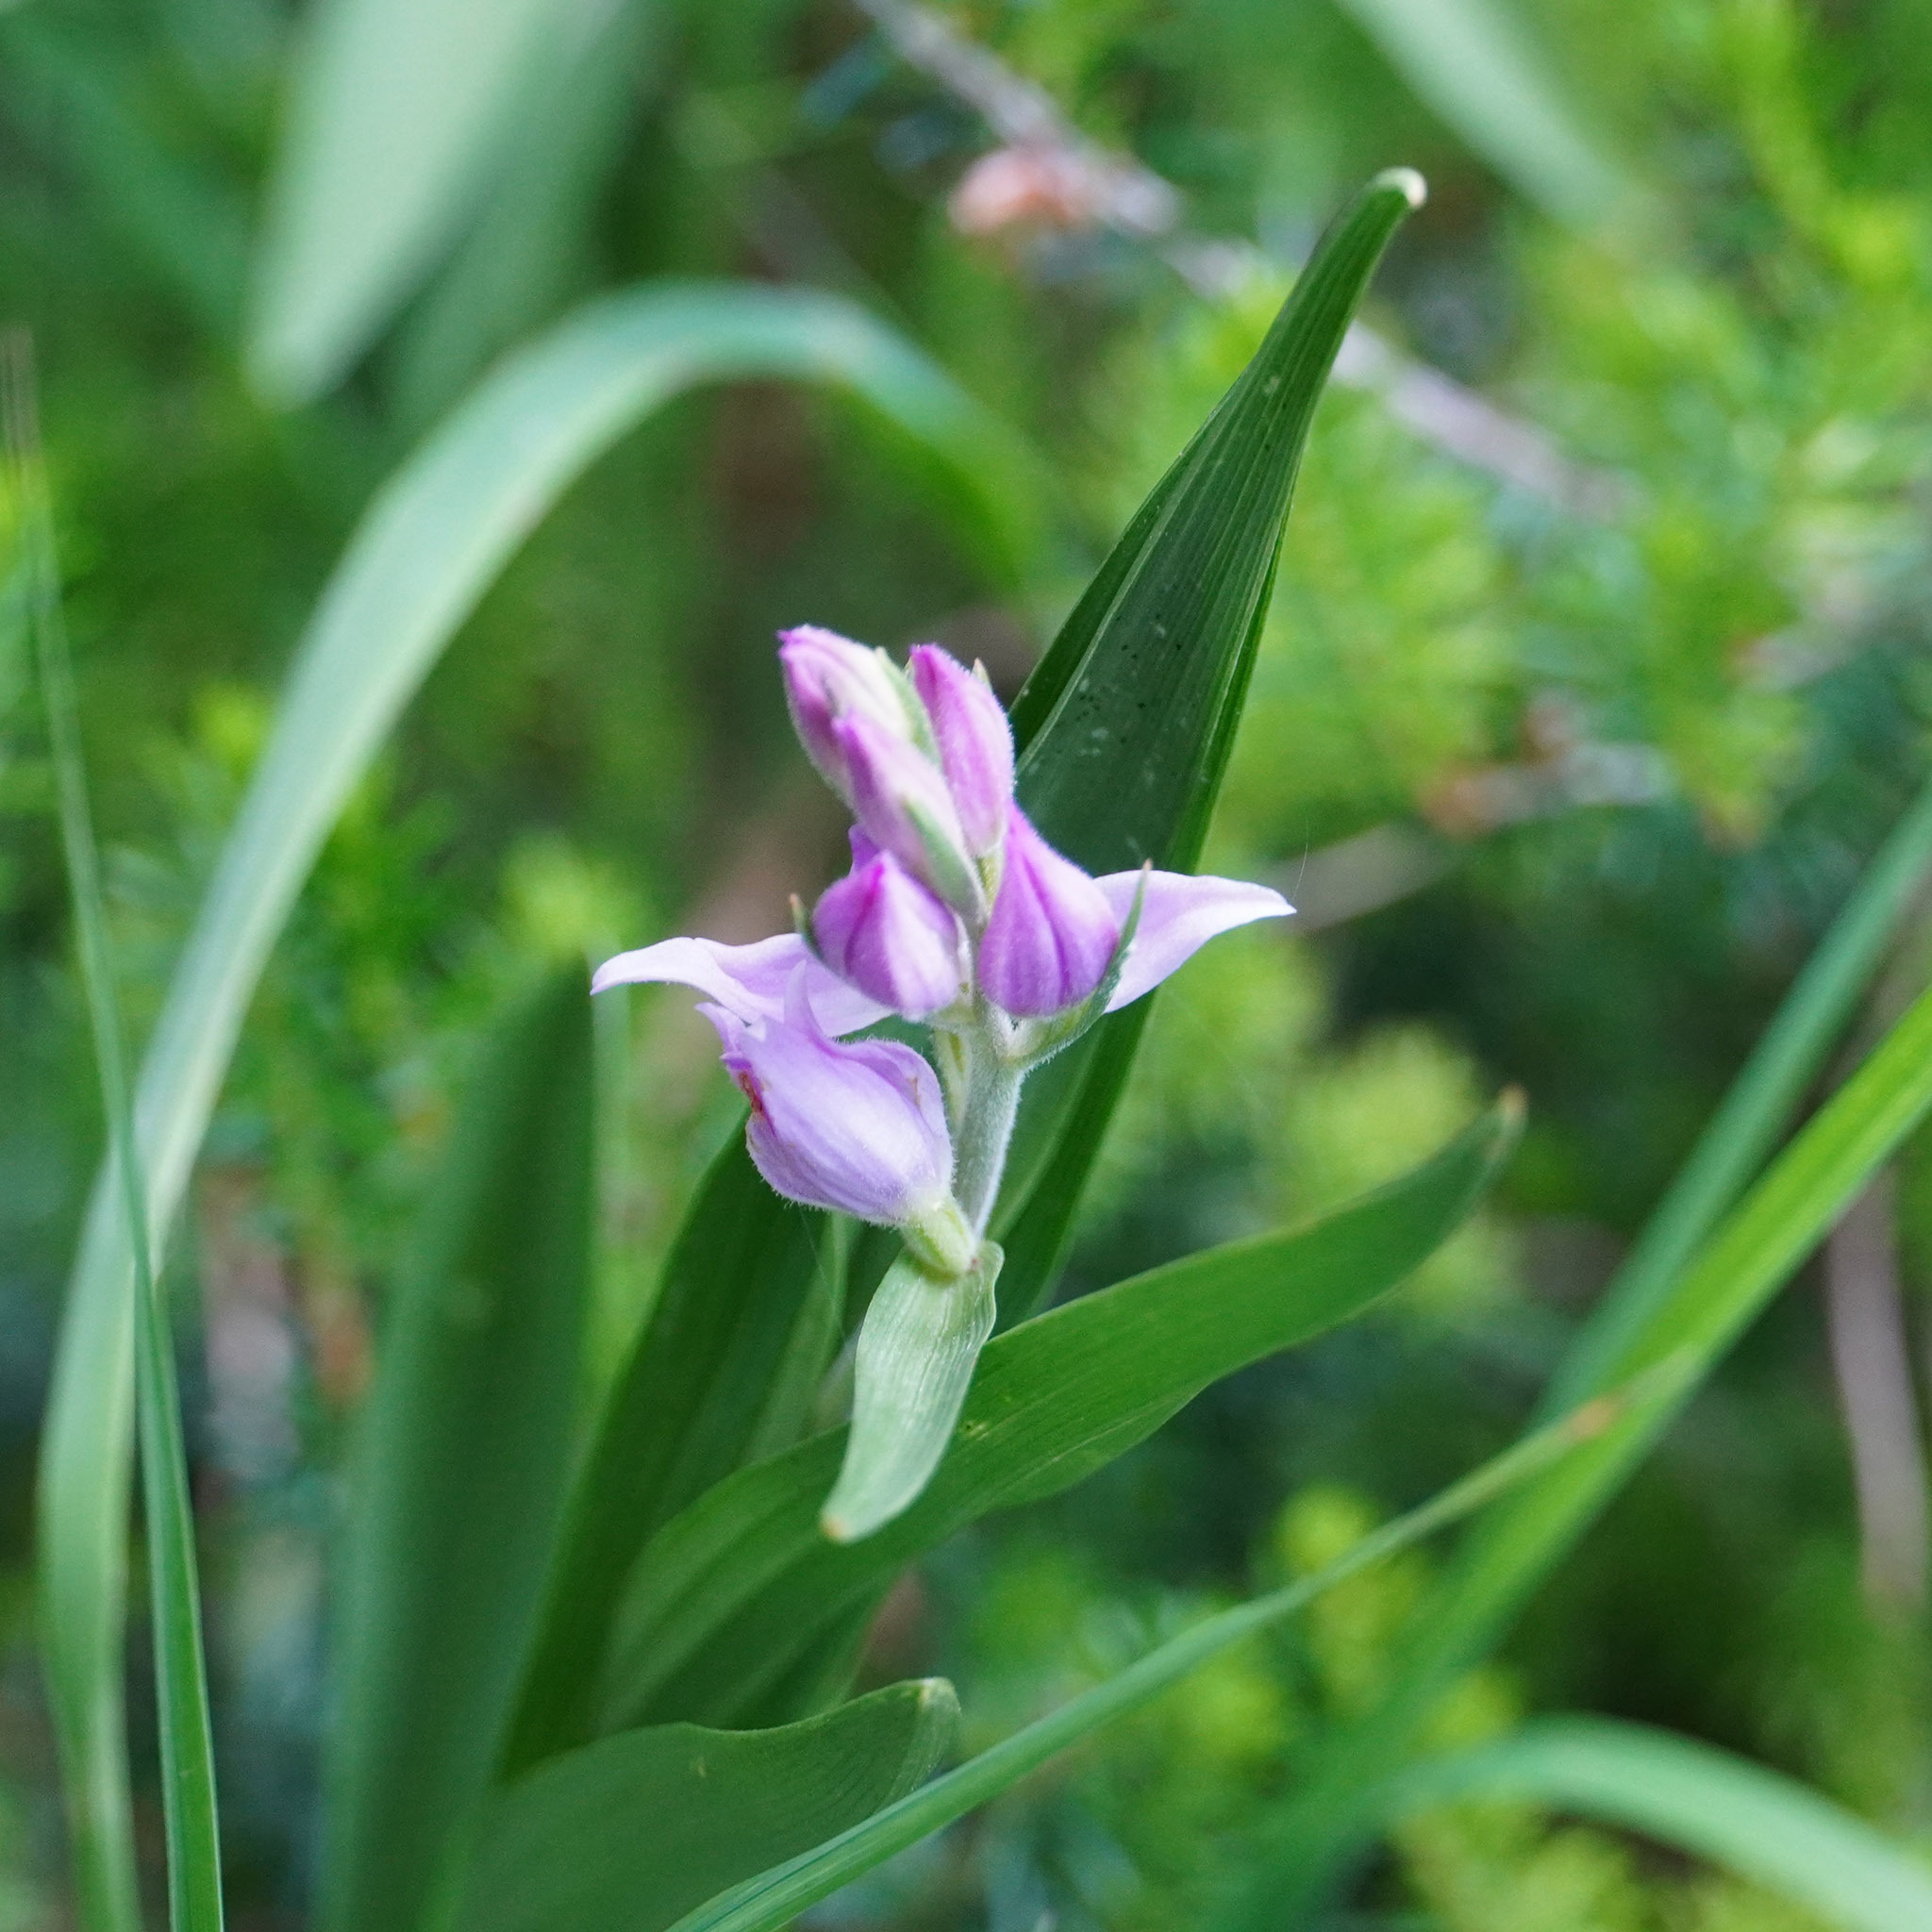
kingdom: Plantae
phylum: Tracheophyta
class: Liliopsida
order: Asparagales
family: Orchidaceae
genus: Cephalanthera
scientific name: Cephalanthera rubra
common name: Red helleborine
